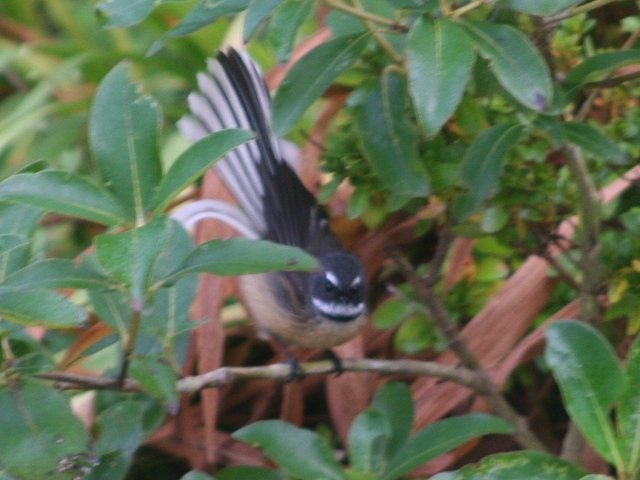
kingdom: Animalia
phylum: Chordata
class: Aves
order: Passeriformes
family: Rhipiduridae
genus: Rhipidura
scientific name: Rhipidura fuliginosa
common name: New zealand fantail
